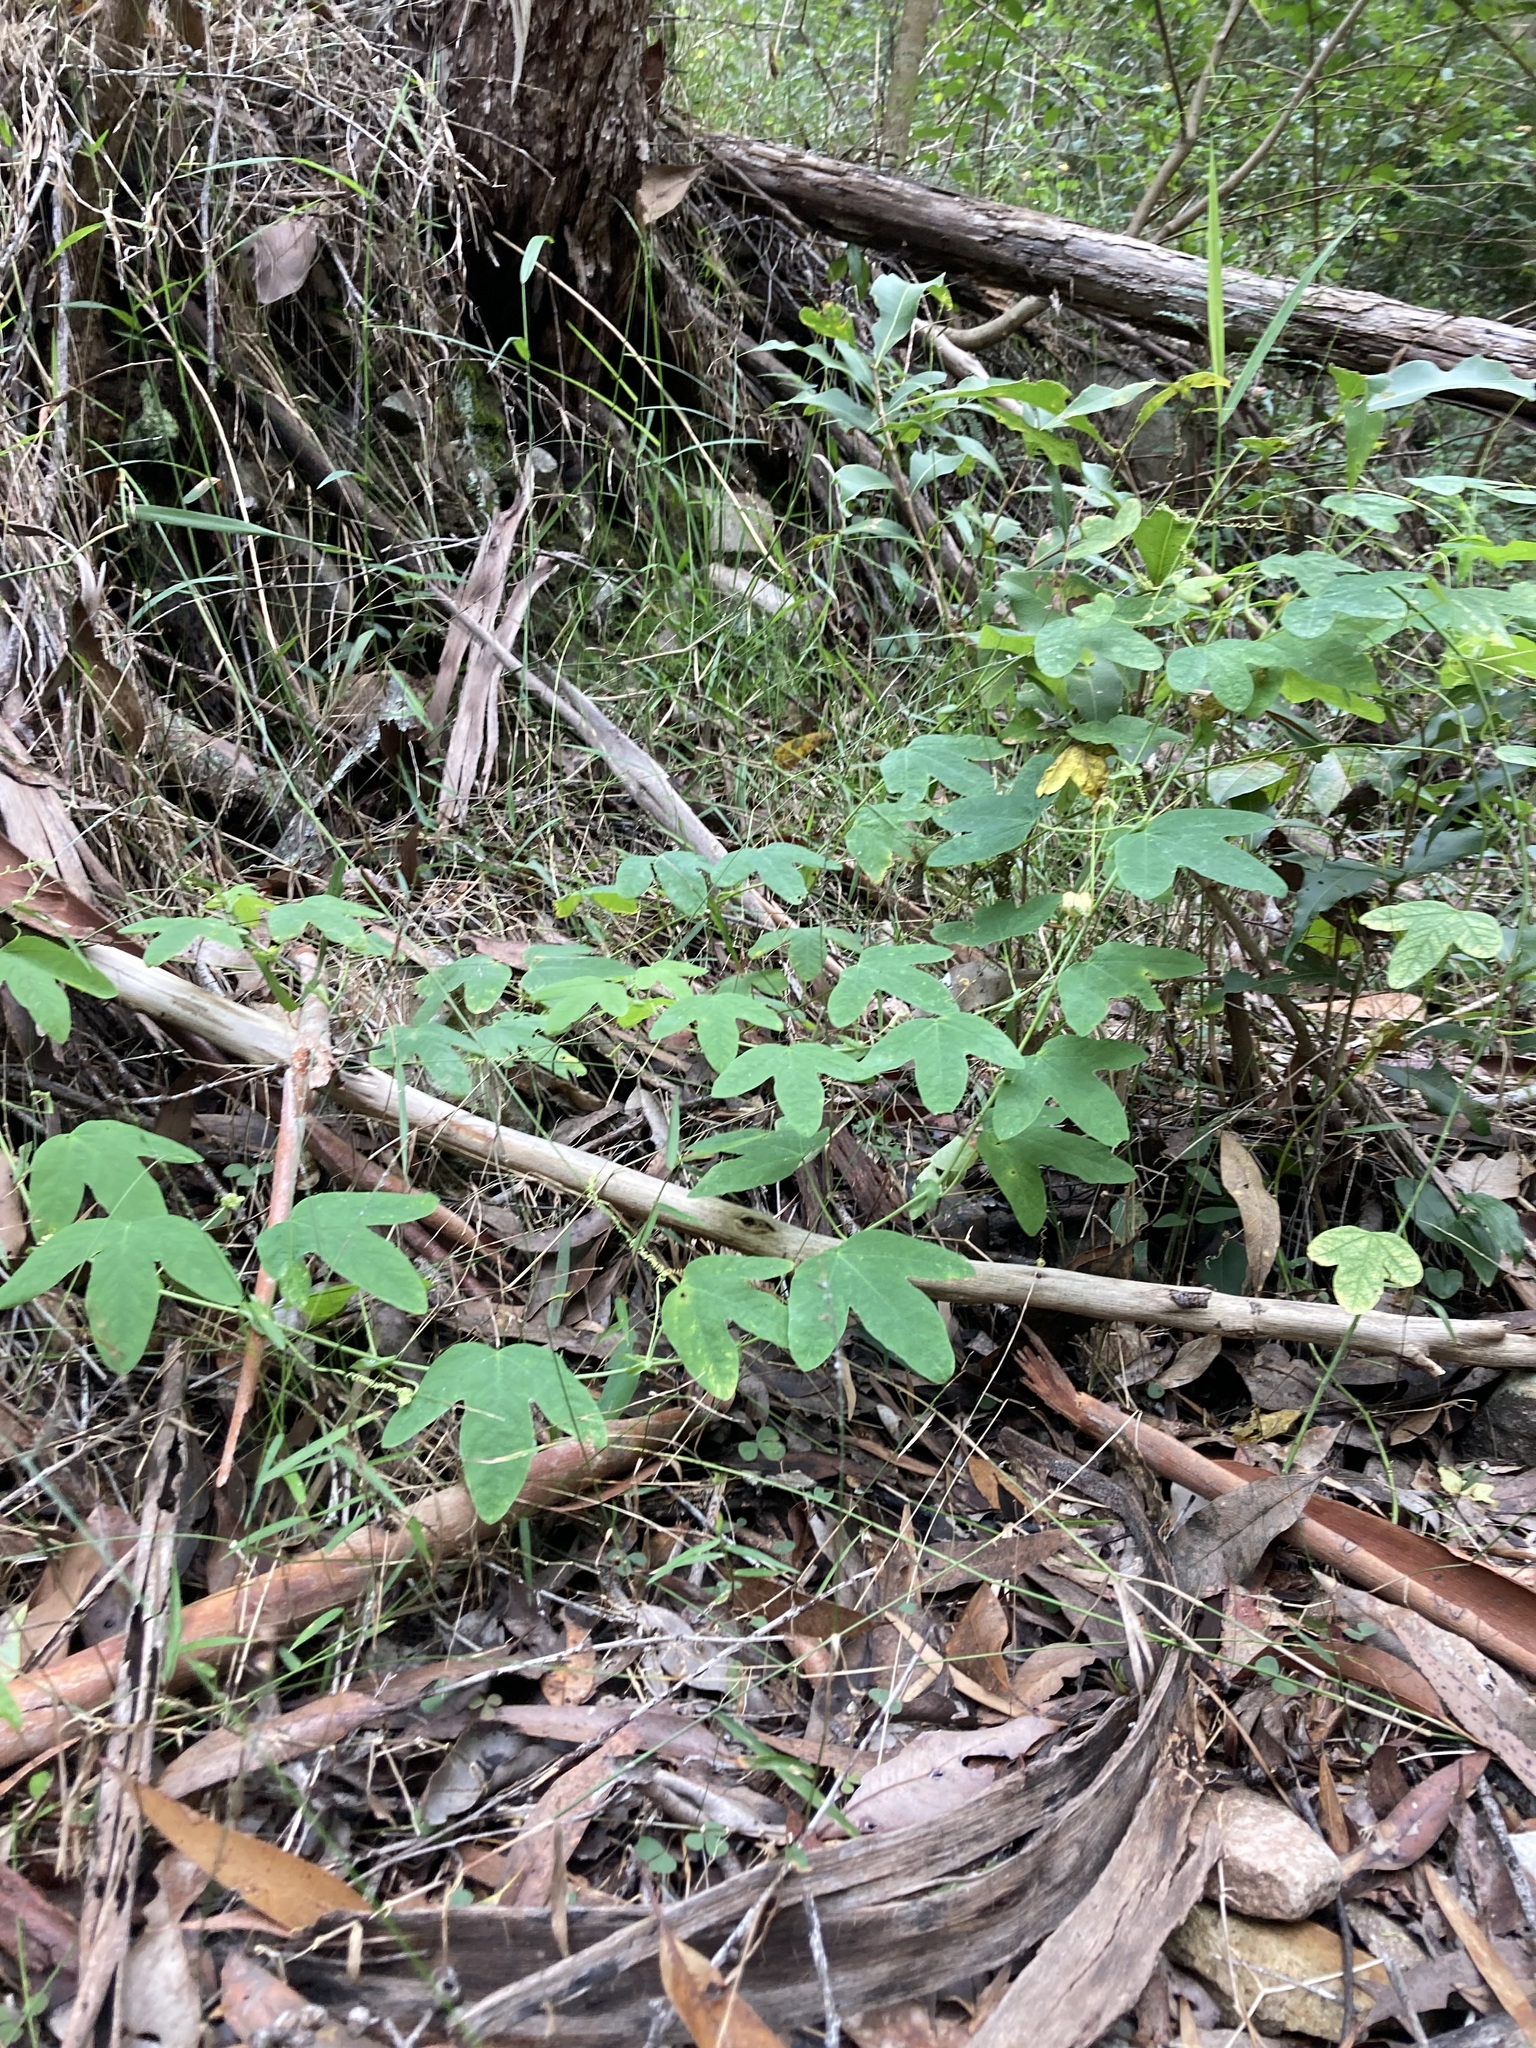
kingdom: Plantae
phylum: Tracheophyta
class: Magnoliopsida
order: Malpighiales
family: Passifloraceae
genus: Passiflora
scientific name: Passiflora subpeltata
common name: White passionflower
